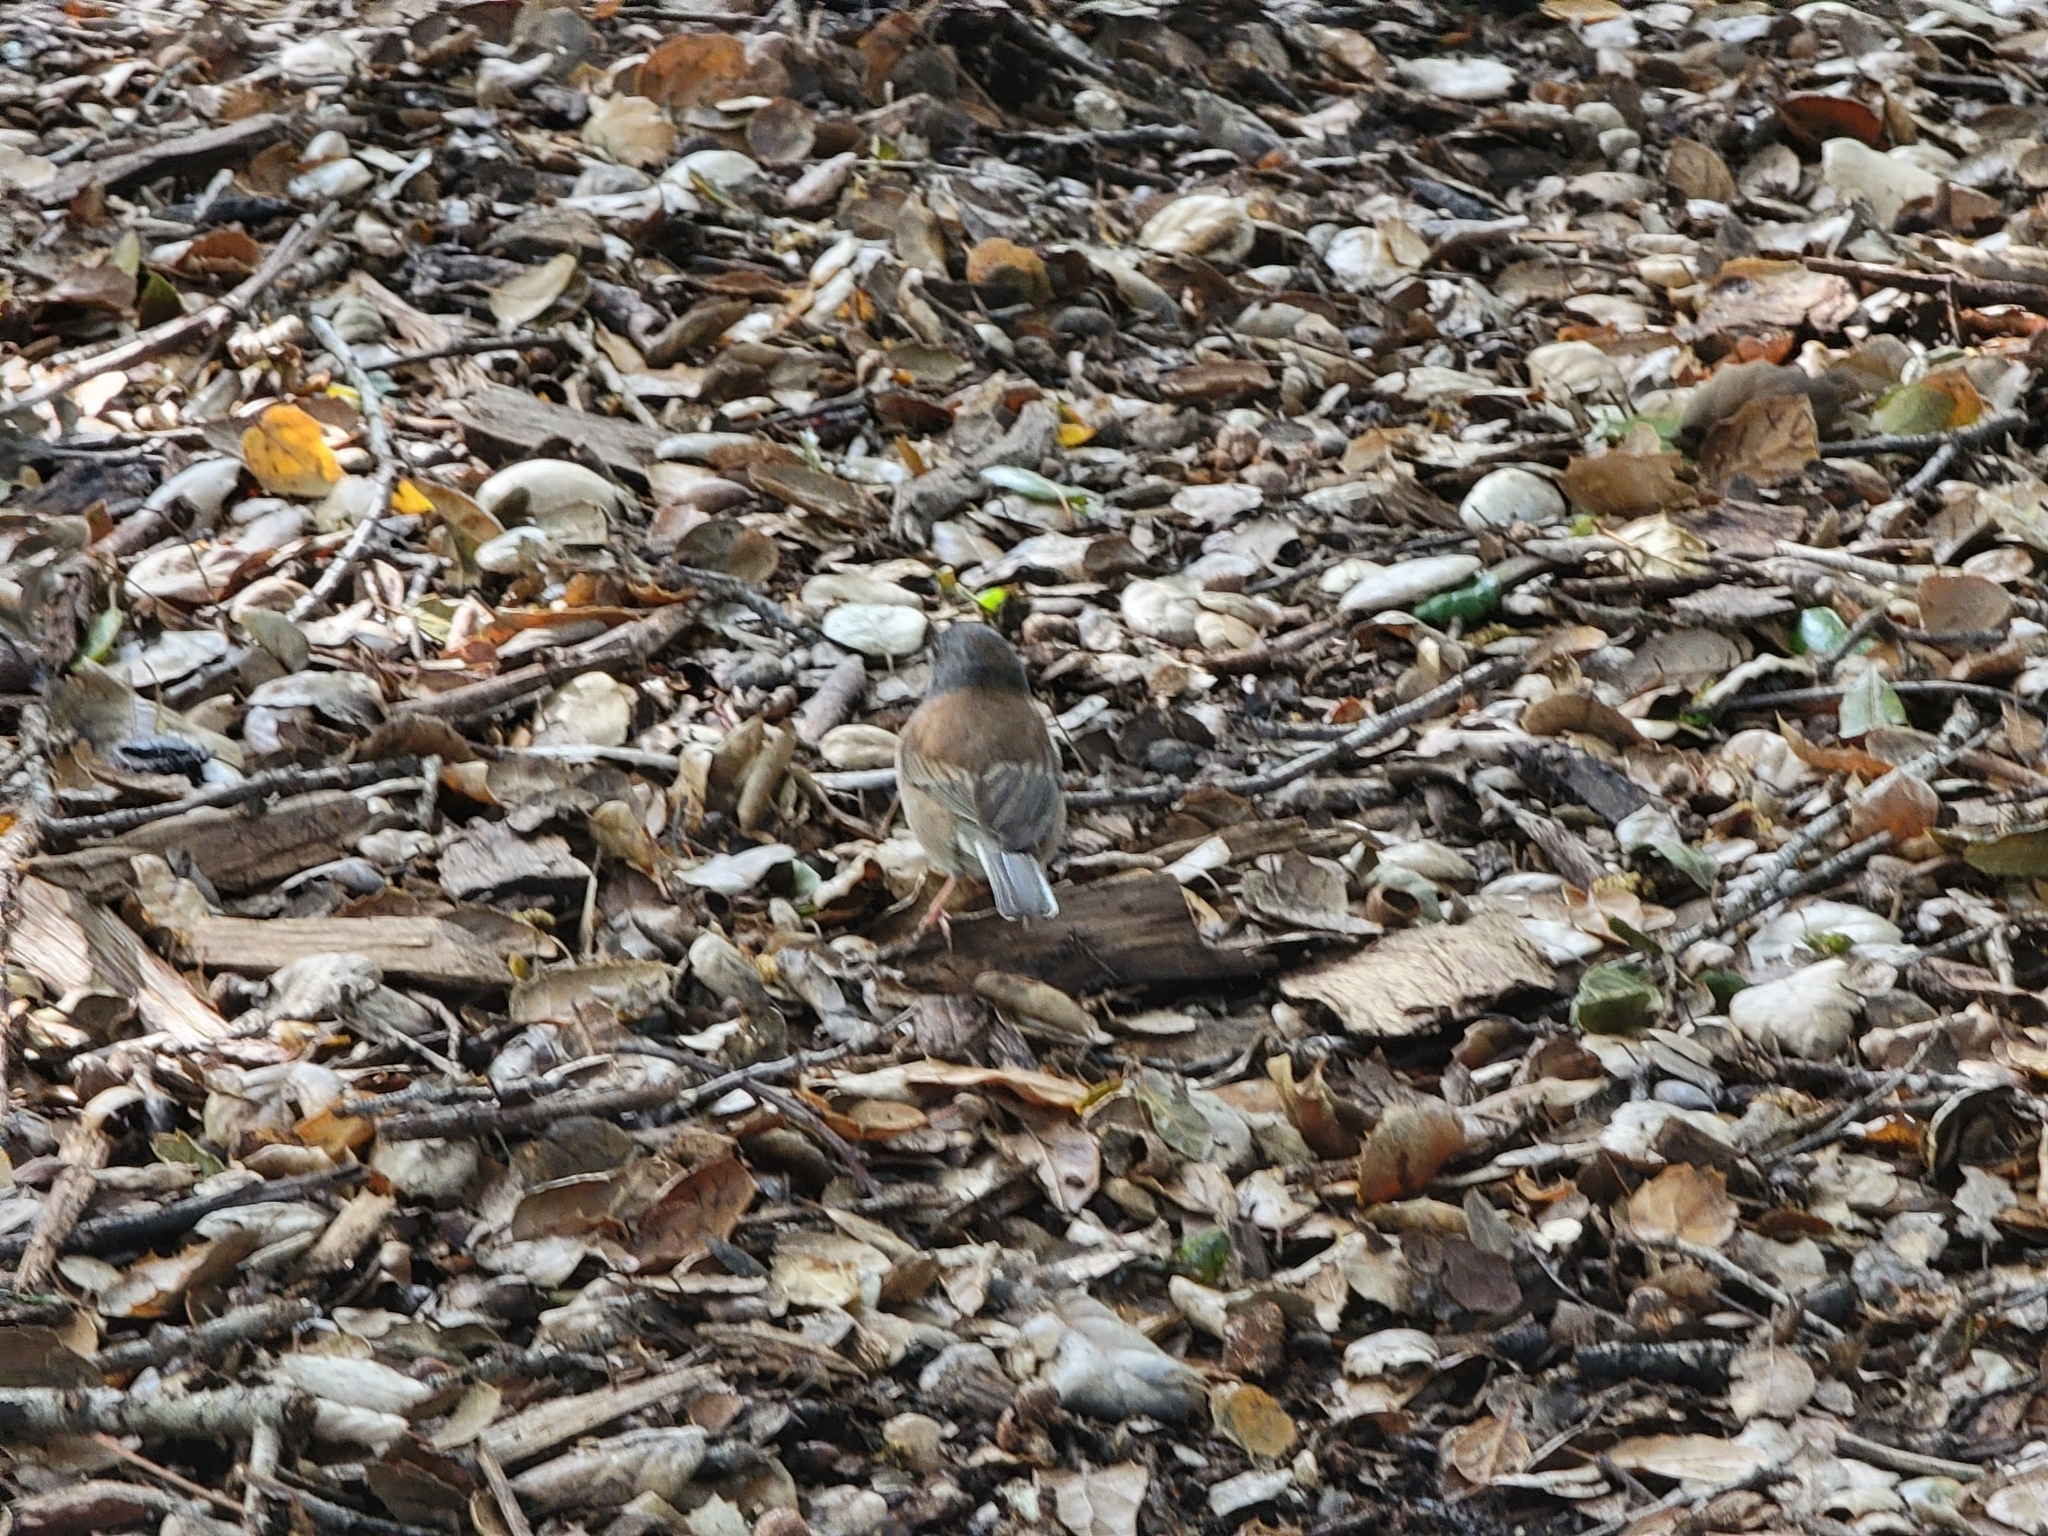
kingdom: Animalia
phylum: Chordata
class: Aves
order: Passeriformes
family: Passerellidae
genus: Junco
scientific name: Junco hyemalis
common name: Dark-eyed junco
